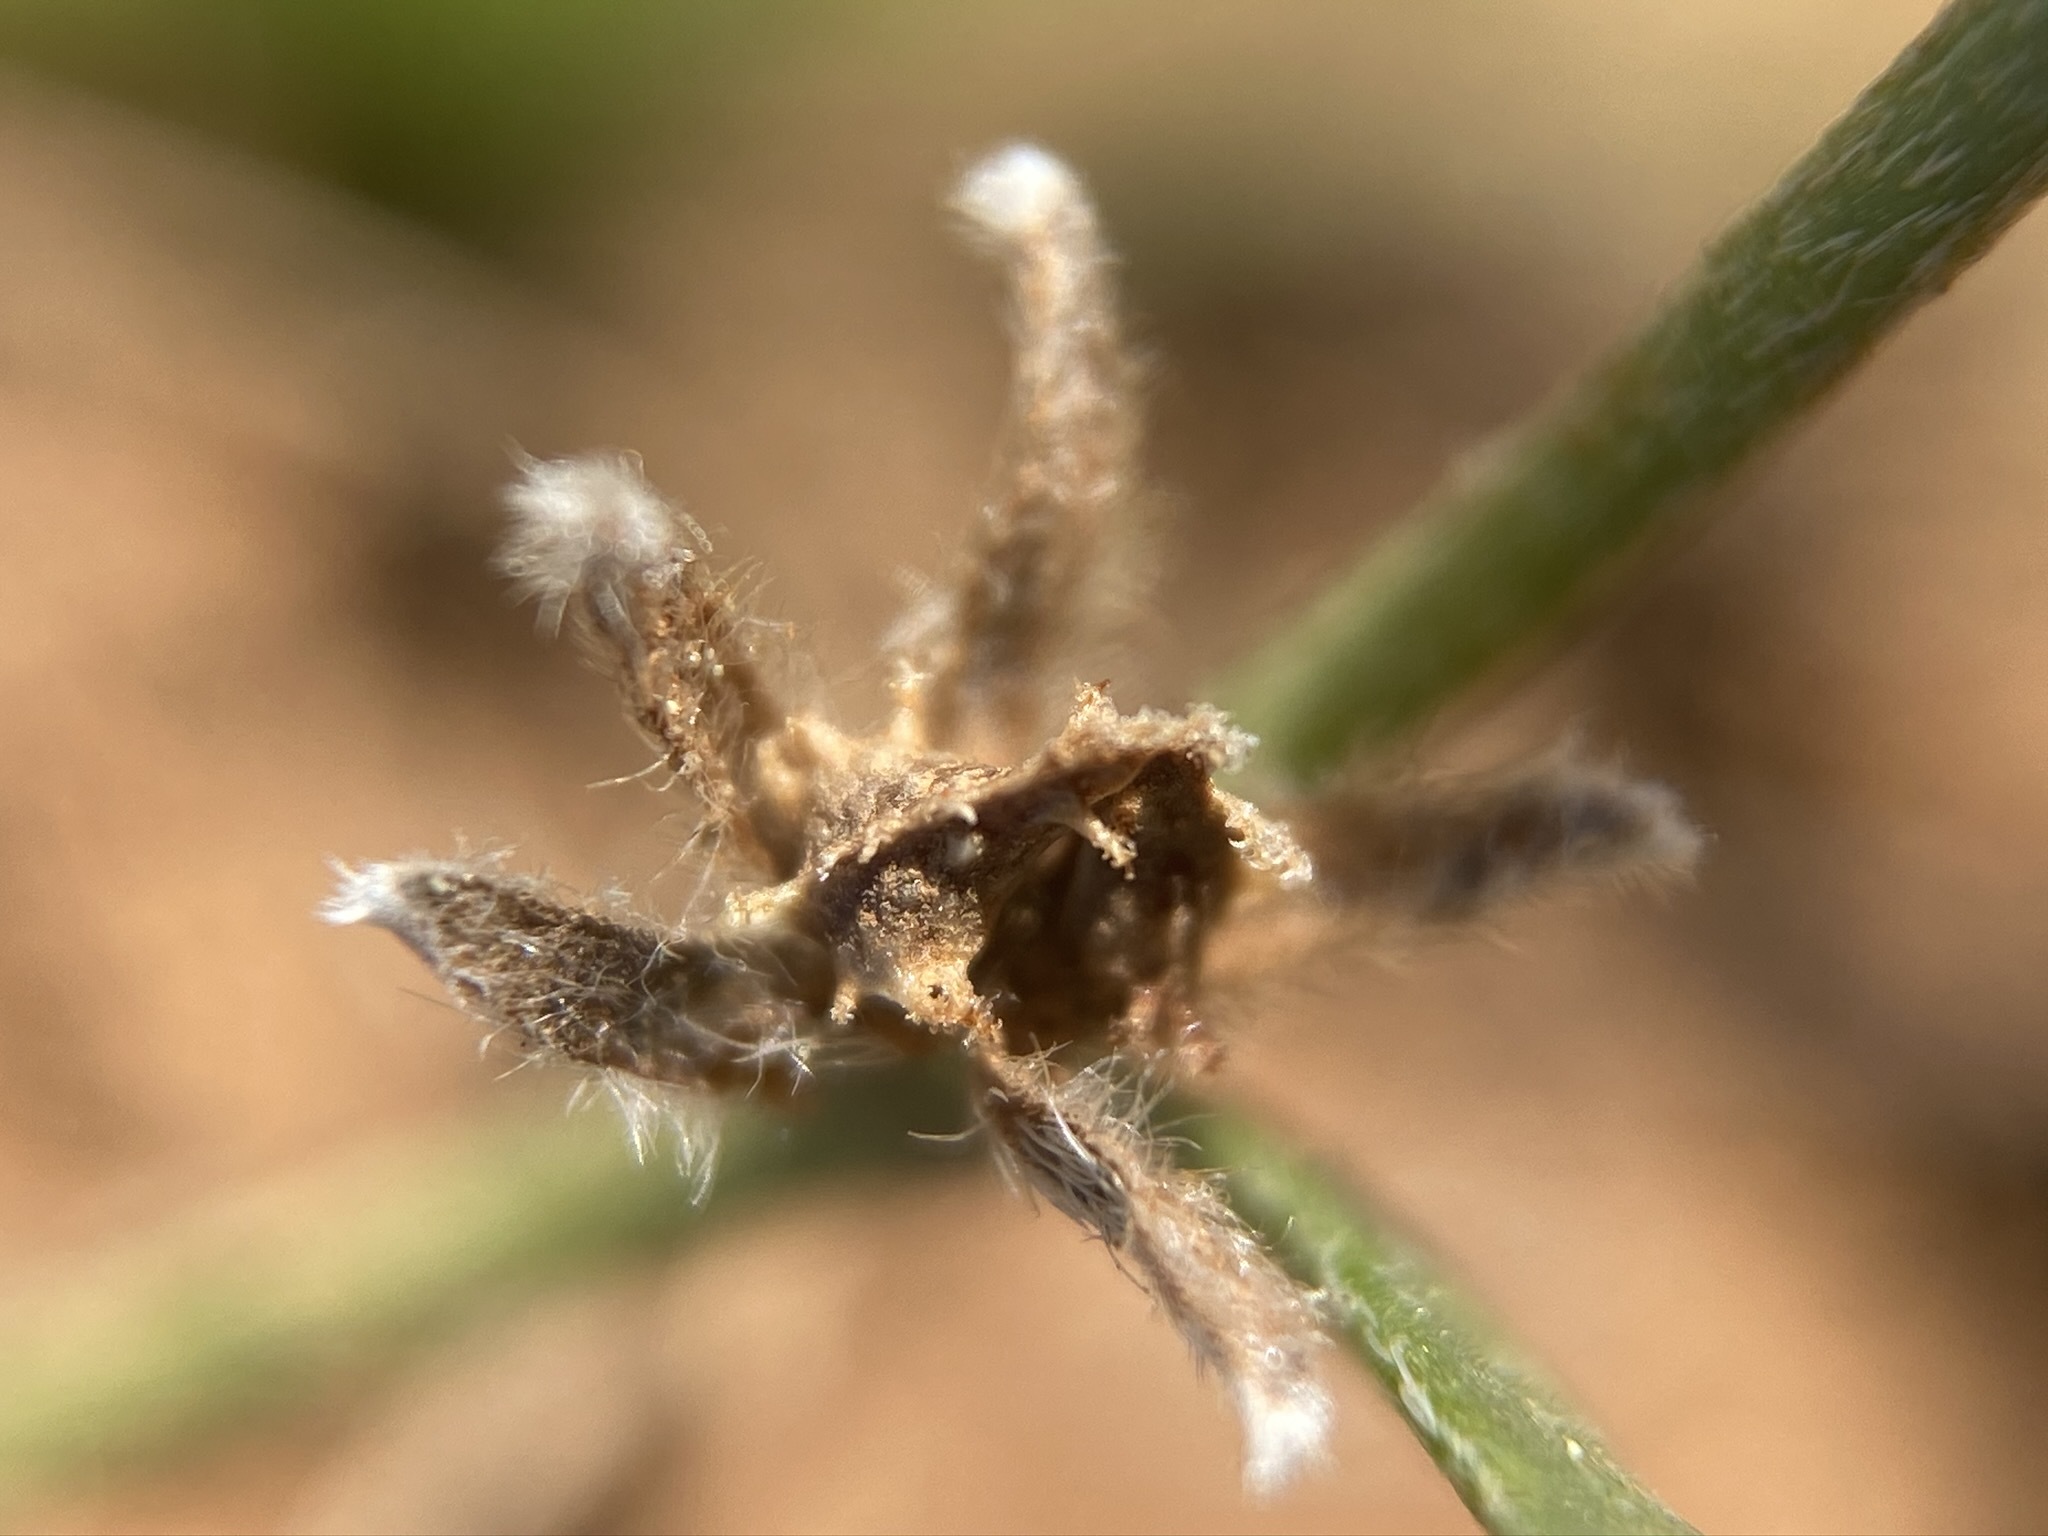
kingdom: Plantae
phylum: Tracheophyta
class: Magnoliopsida
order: Boraginales
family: Boraginaceae
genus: Plagiobothrys
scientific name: Plagiobothrys austinae
